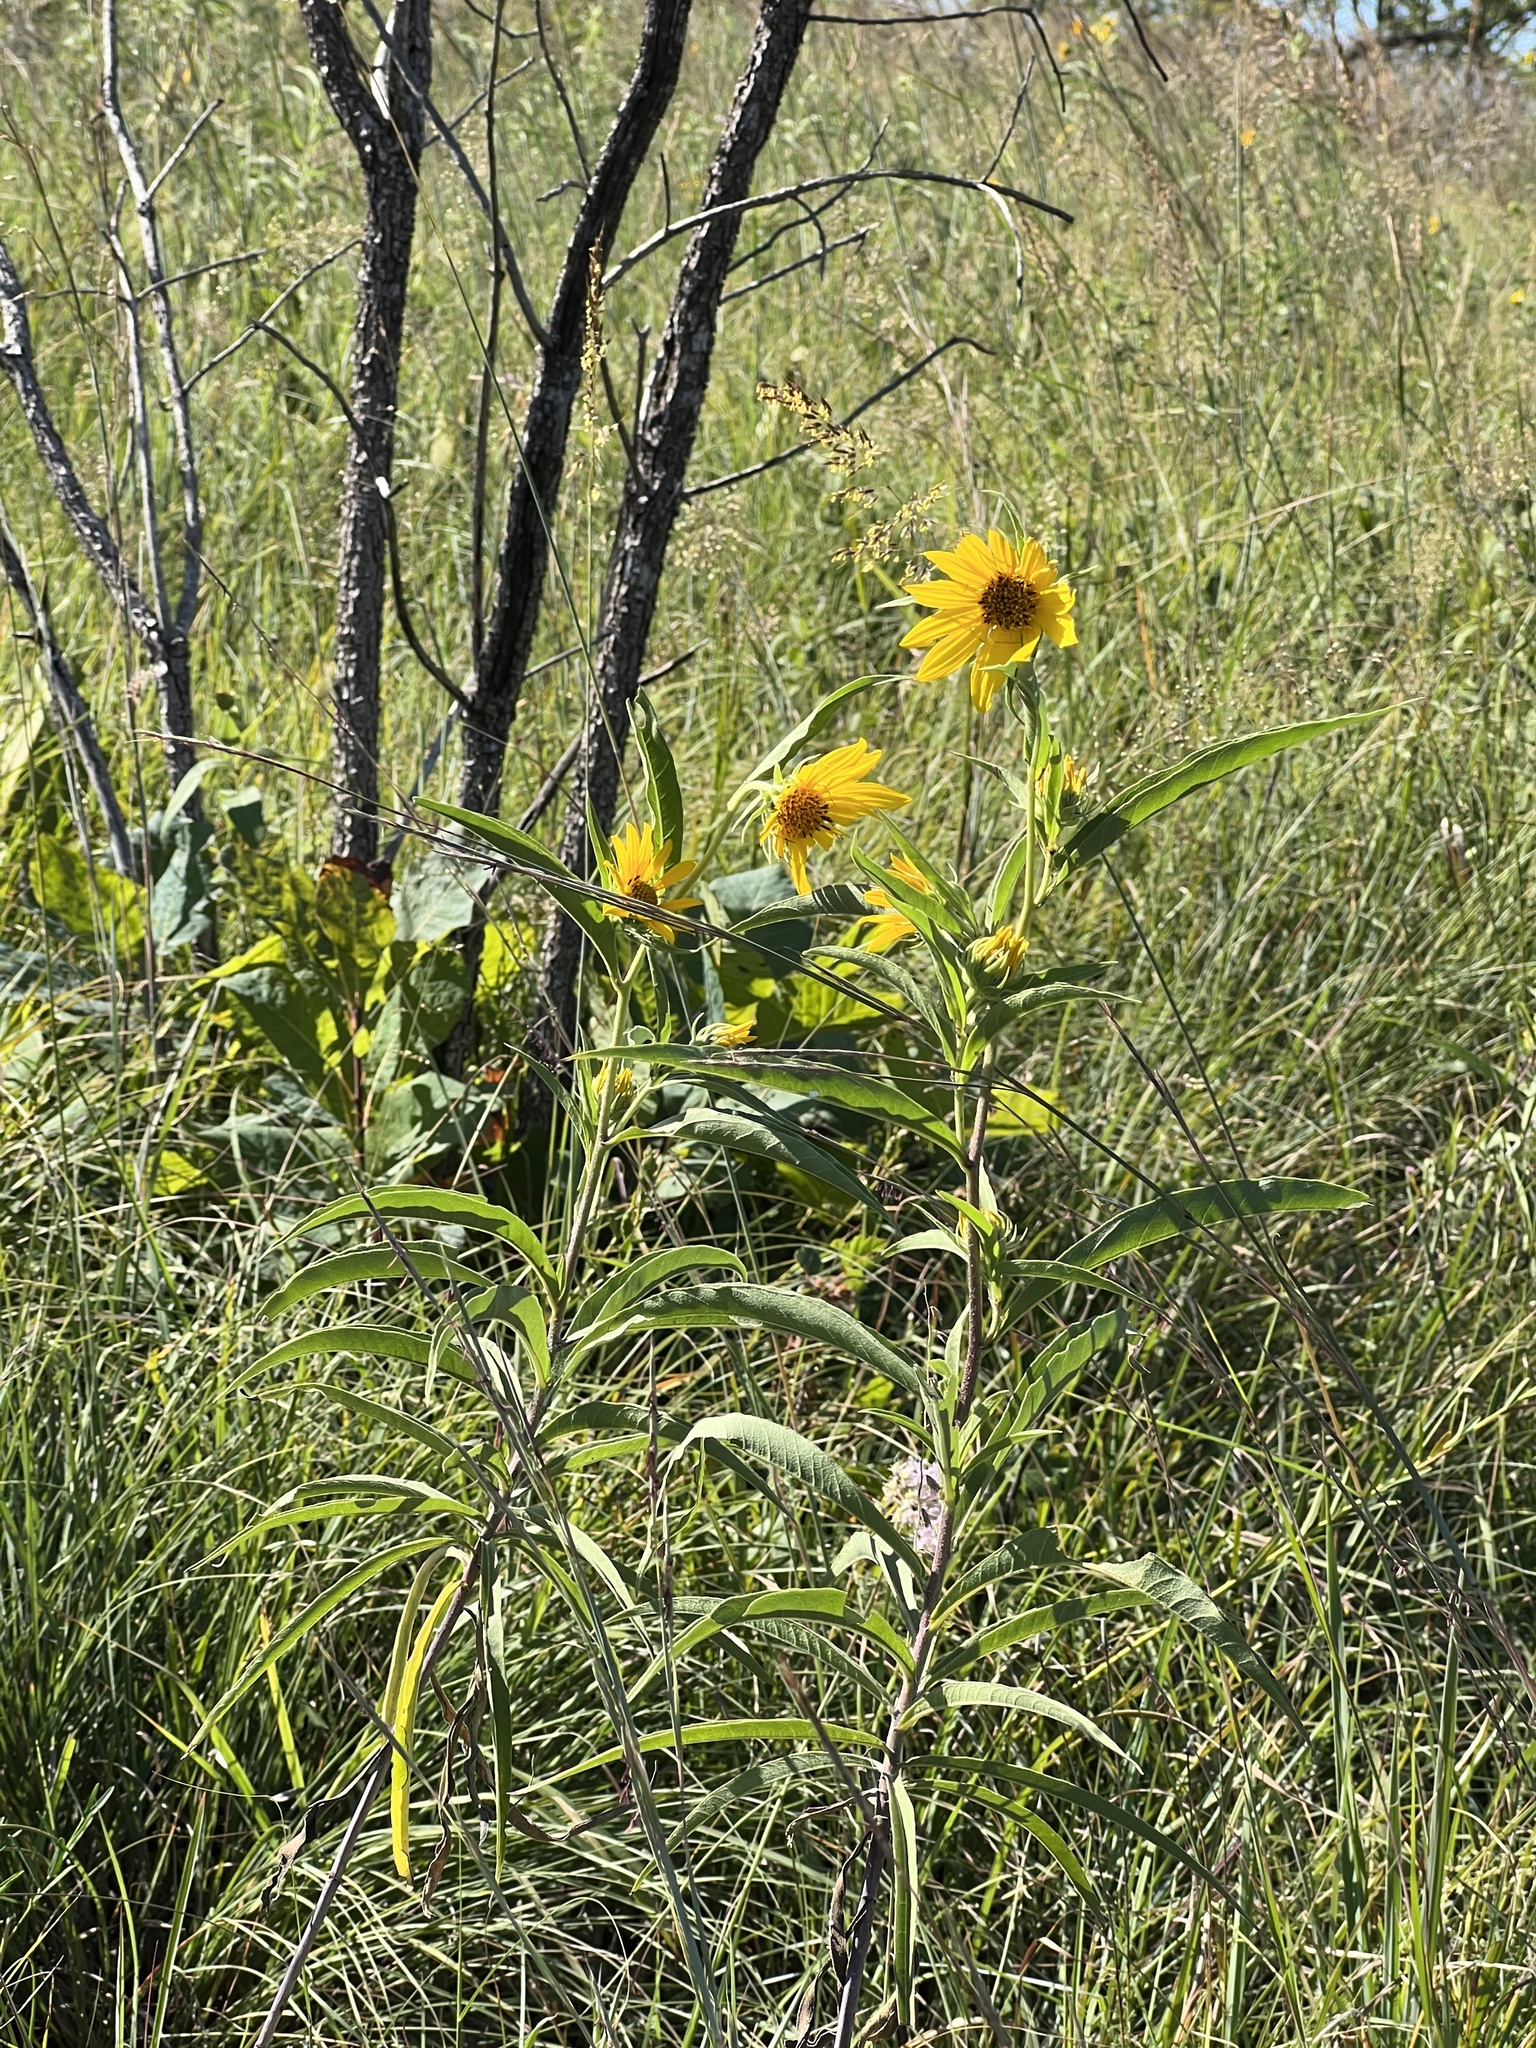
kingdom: Plantae
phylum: Tracheophyta
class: Magnoliopsida
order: Asterales
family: Asteraceae
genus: Helianthus
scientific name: Helianthus maximiliani
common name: Maximilian's sunflower
